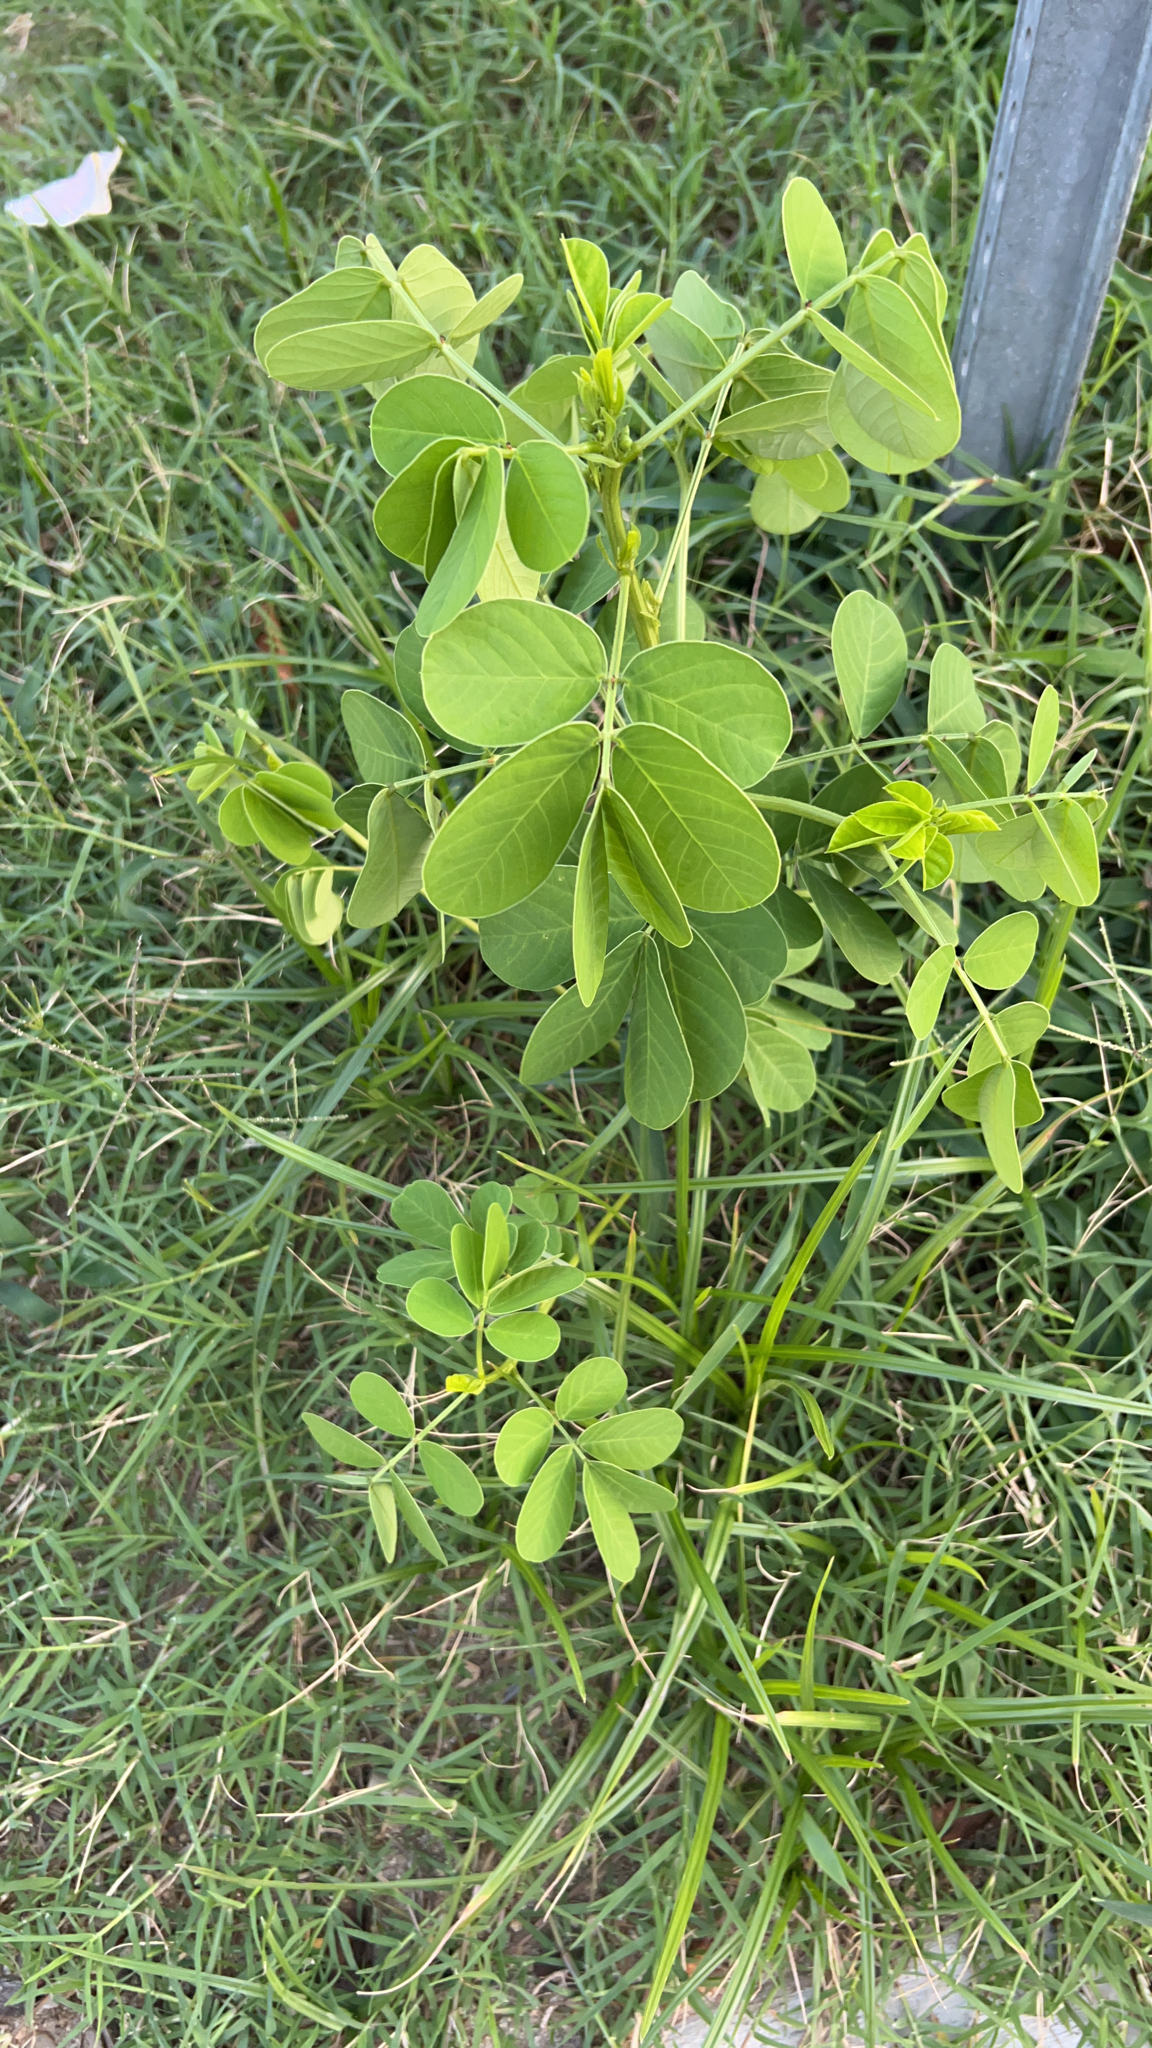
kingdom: Plantae
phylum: Tracheophyta
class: Magnoliopsida
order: Fabales
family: Fabaceae
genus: Senna
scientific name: Senna obtusifolia
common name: Java-bean
